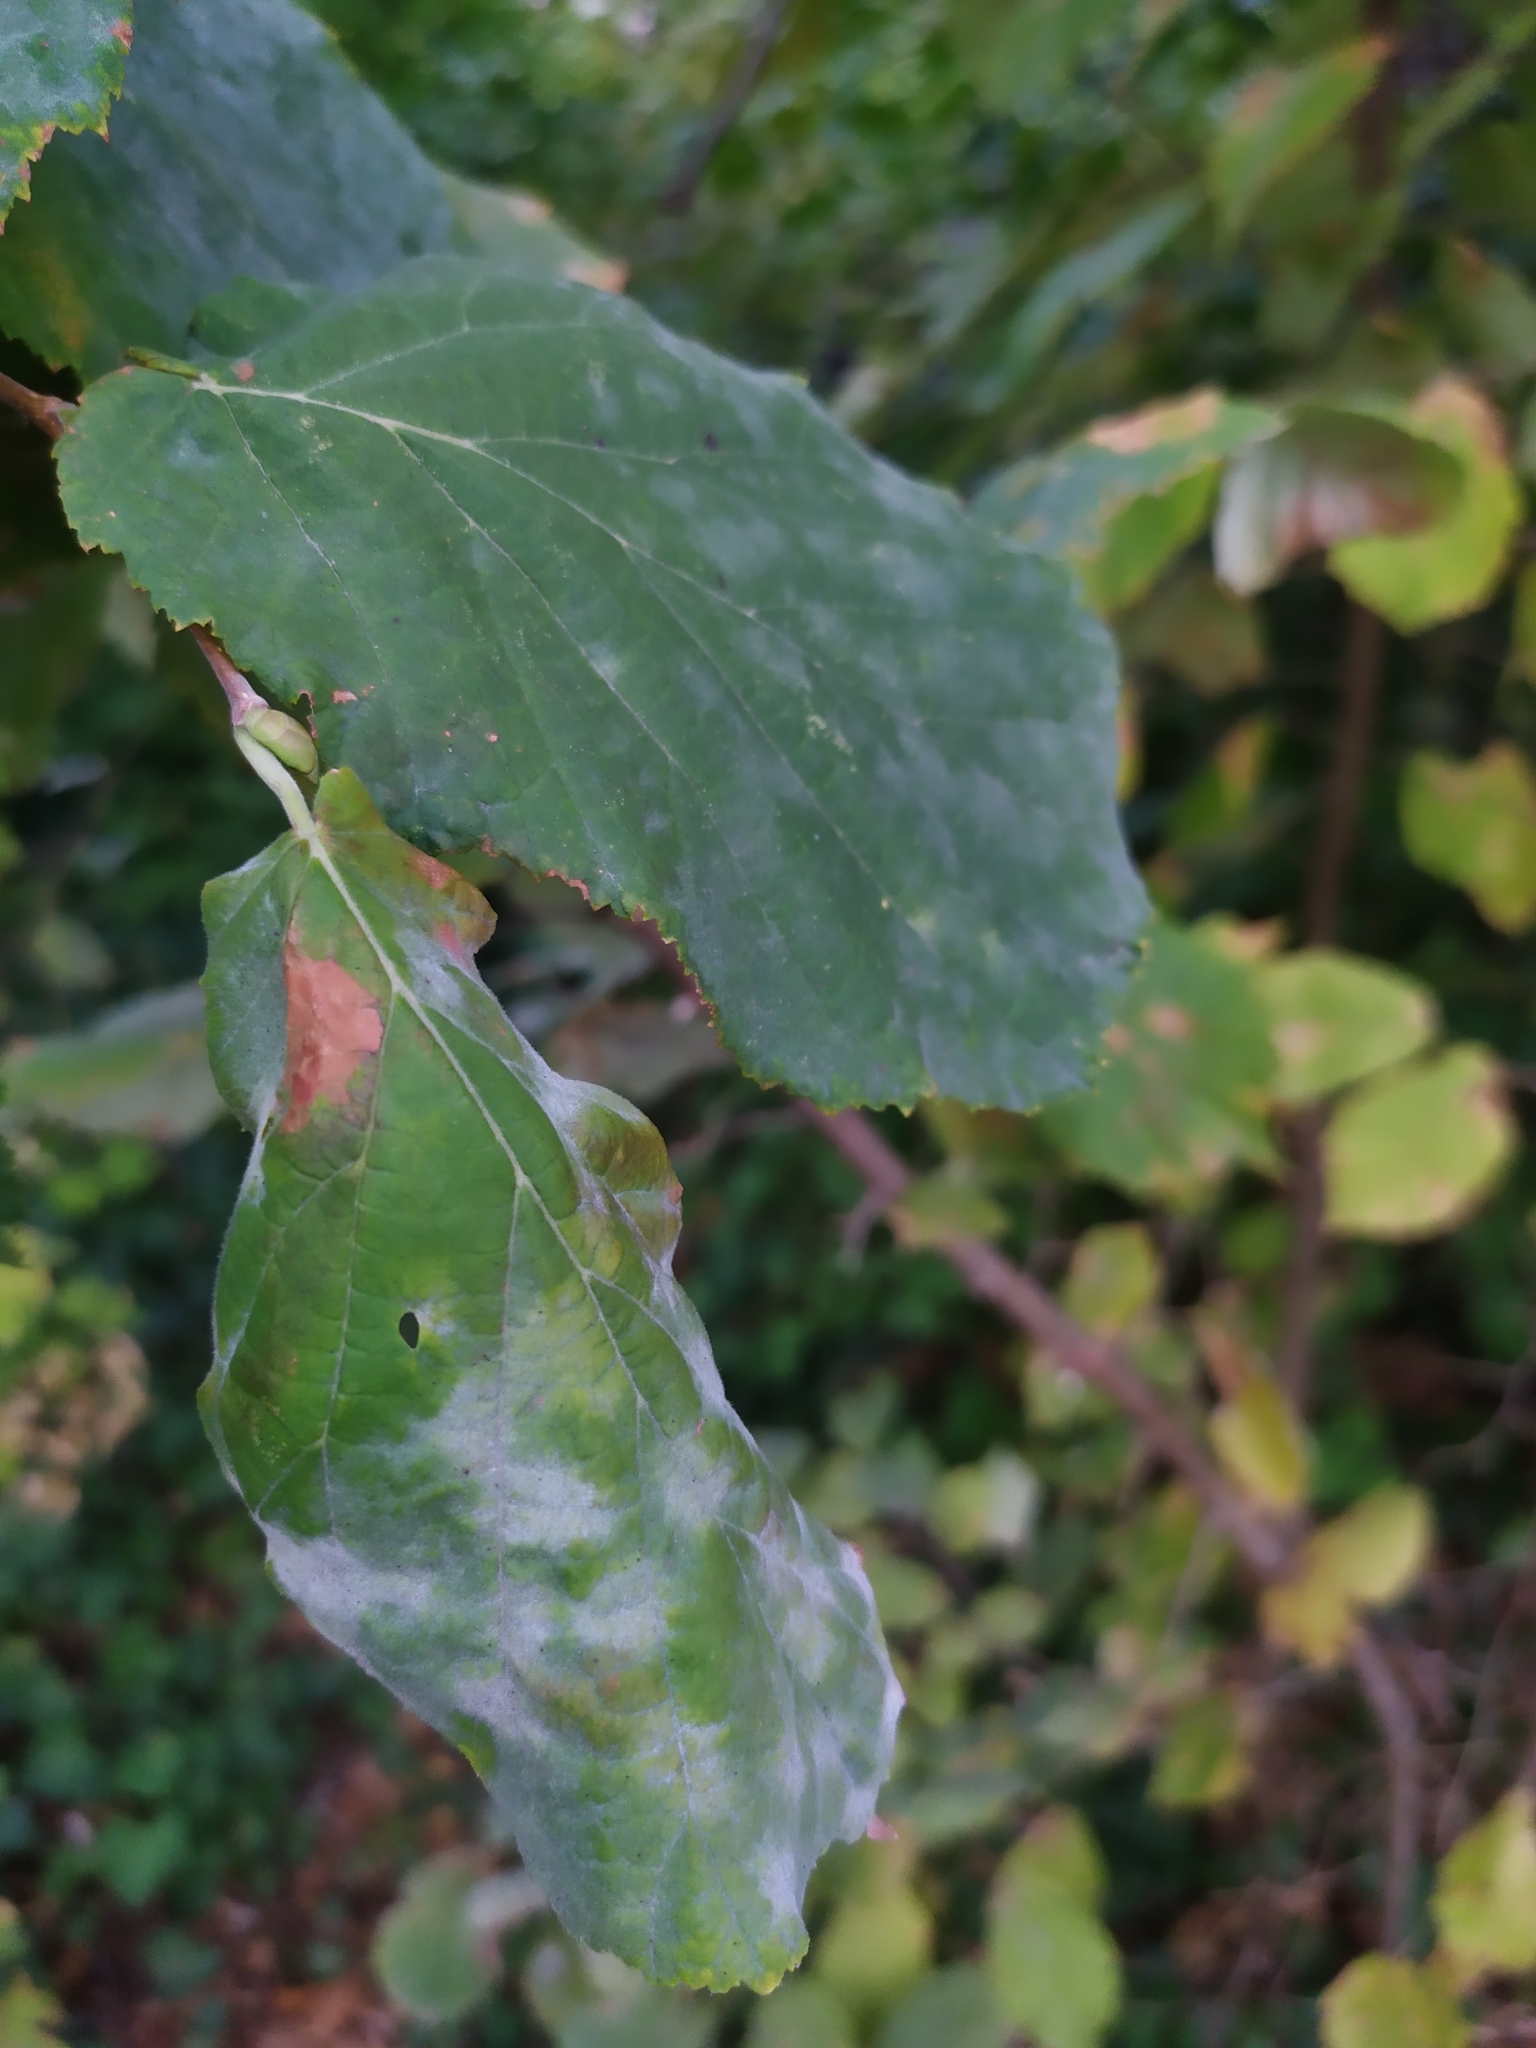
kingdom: Fungi
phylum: Ascomycota
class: Leotiomycetes
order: Helotiales
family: Erysiphaceae
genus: Phyllactinia
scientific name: Phyllactinia guttata
